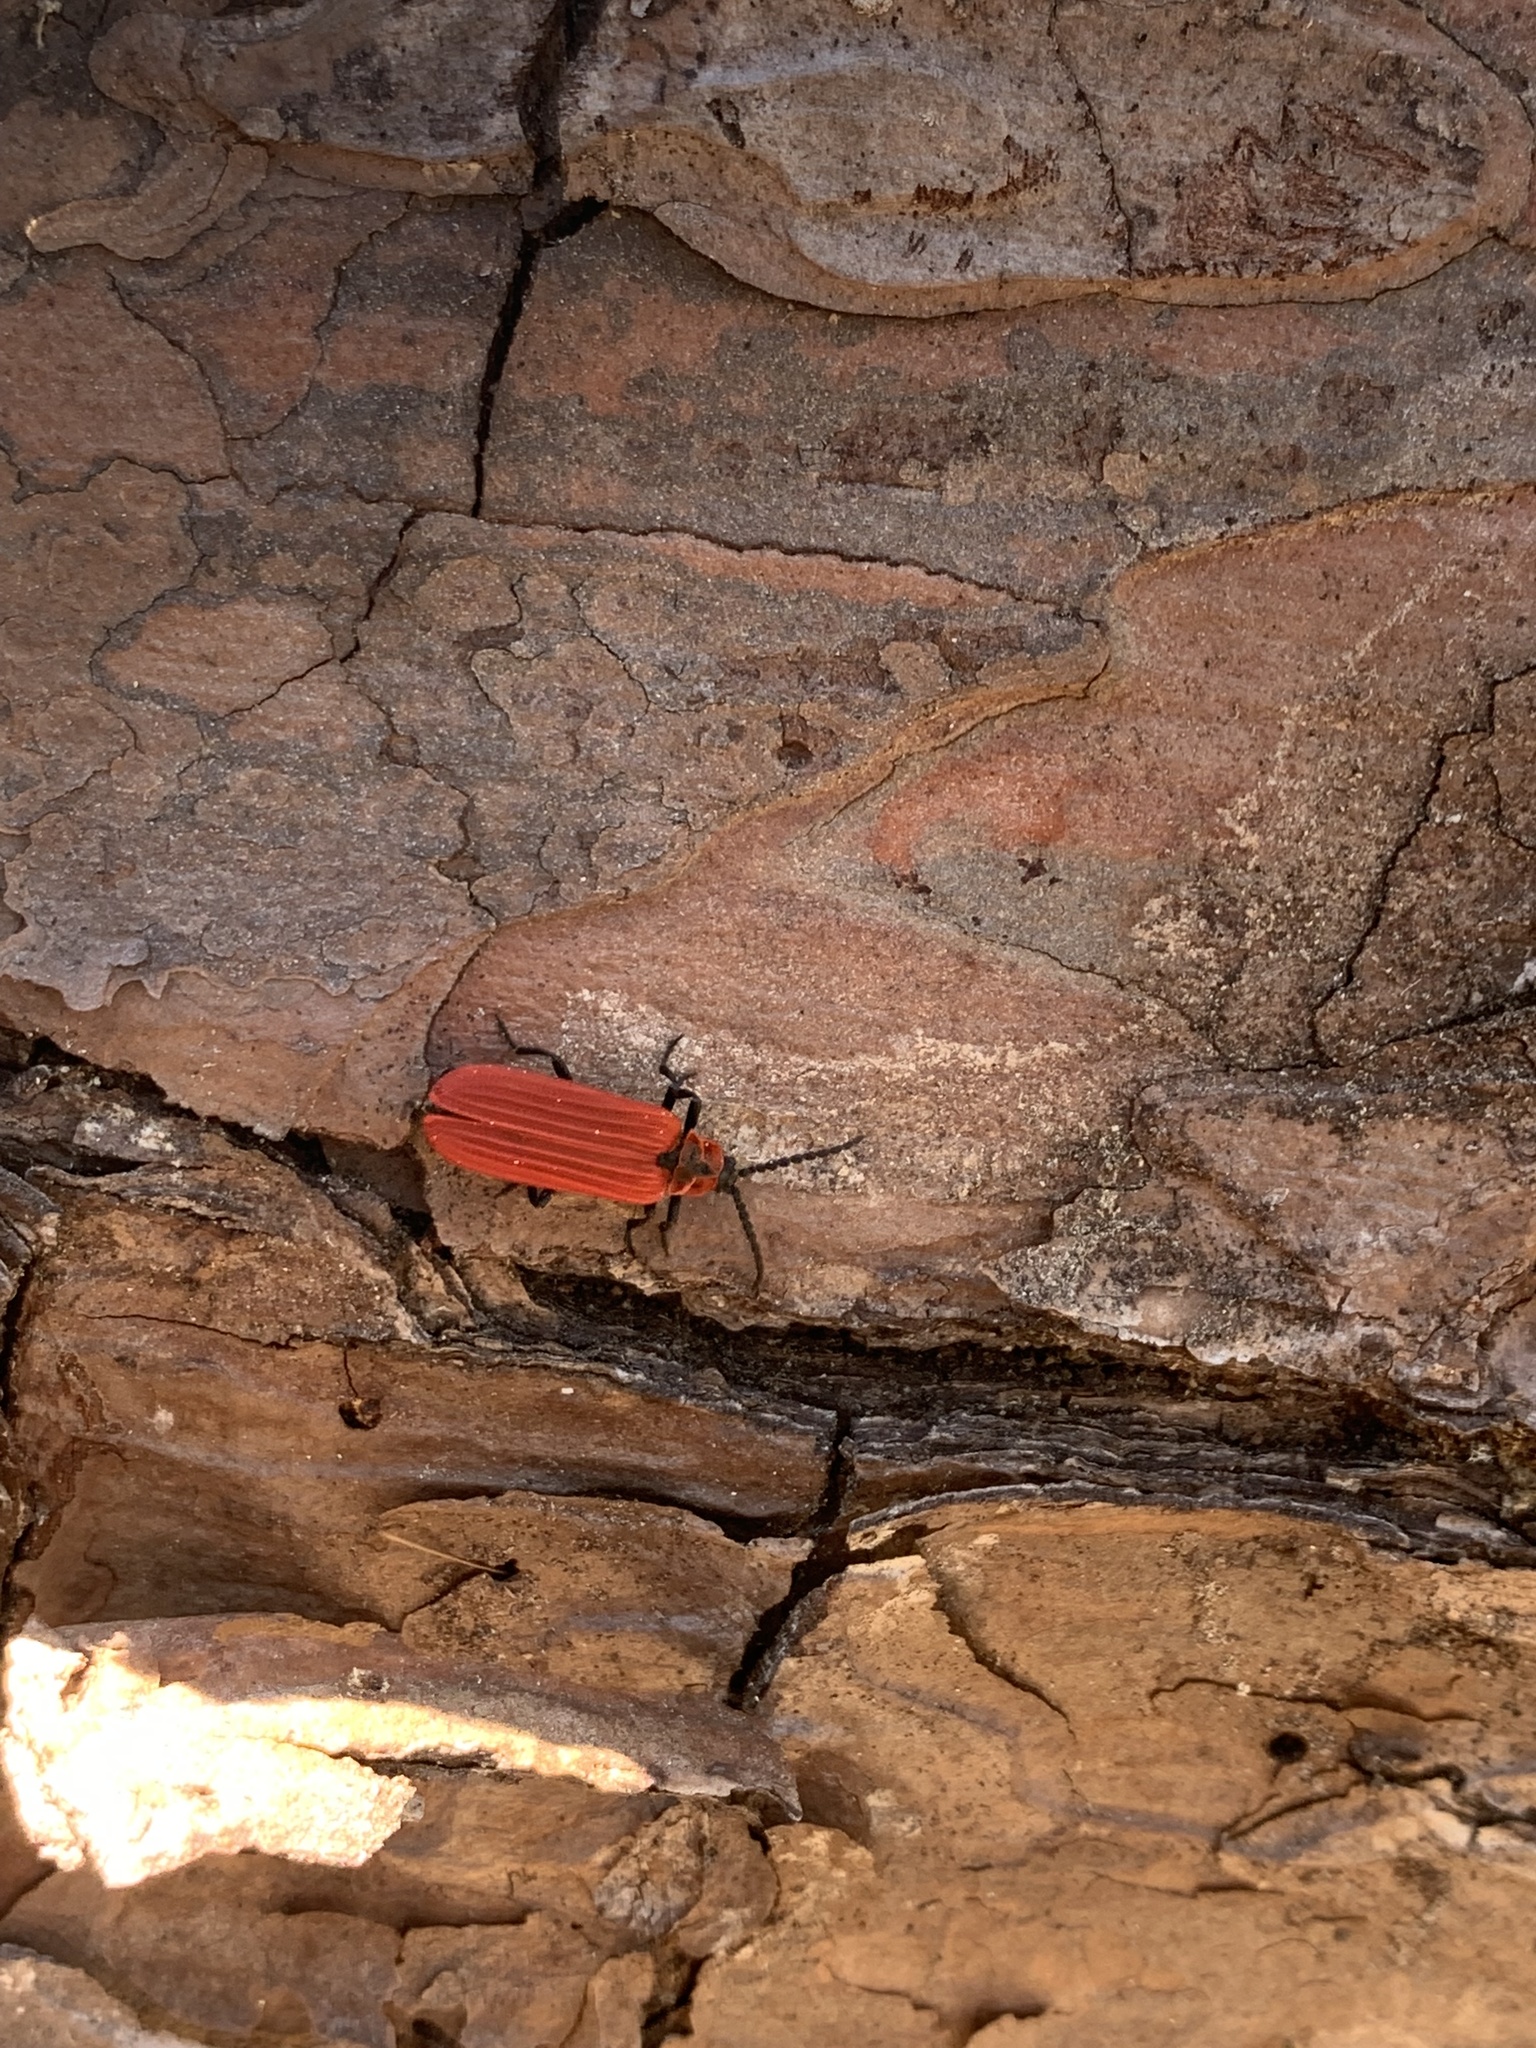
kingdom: Animalia
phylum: Arthropoda
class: Insecta
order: Coleoptera
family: Lycidae
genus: Dictyoptera
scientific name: Dictyoptera aurora
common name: Golden net-winged beetle
